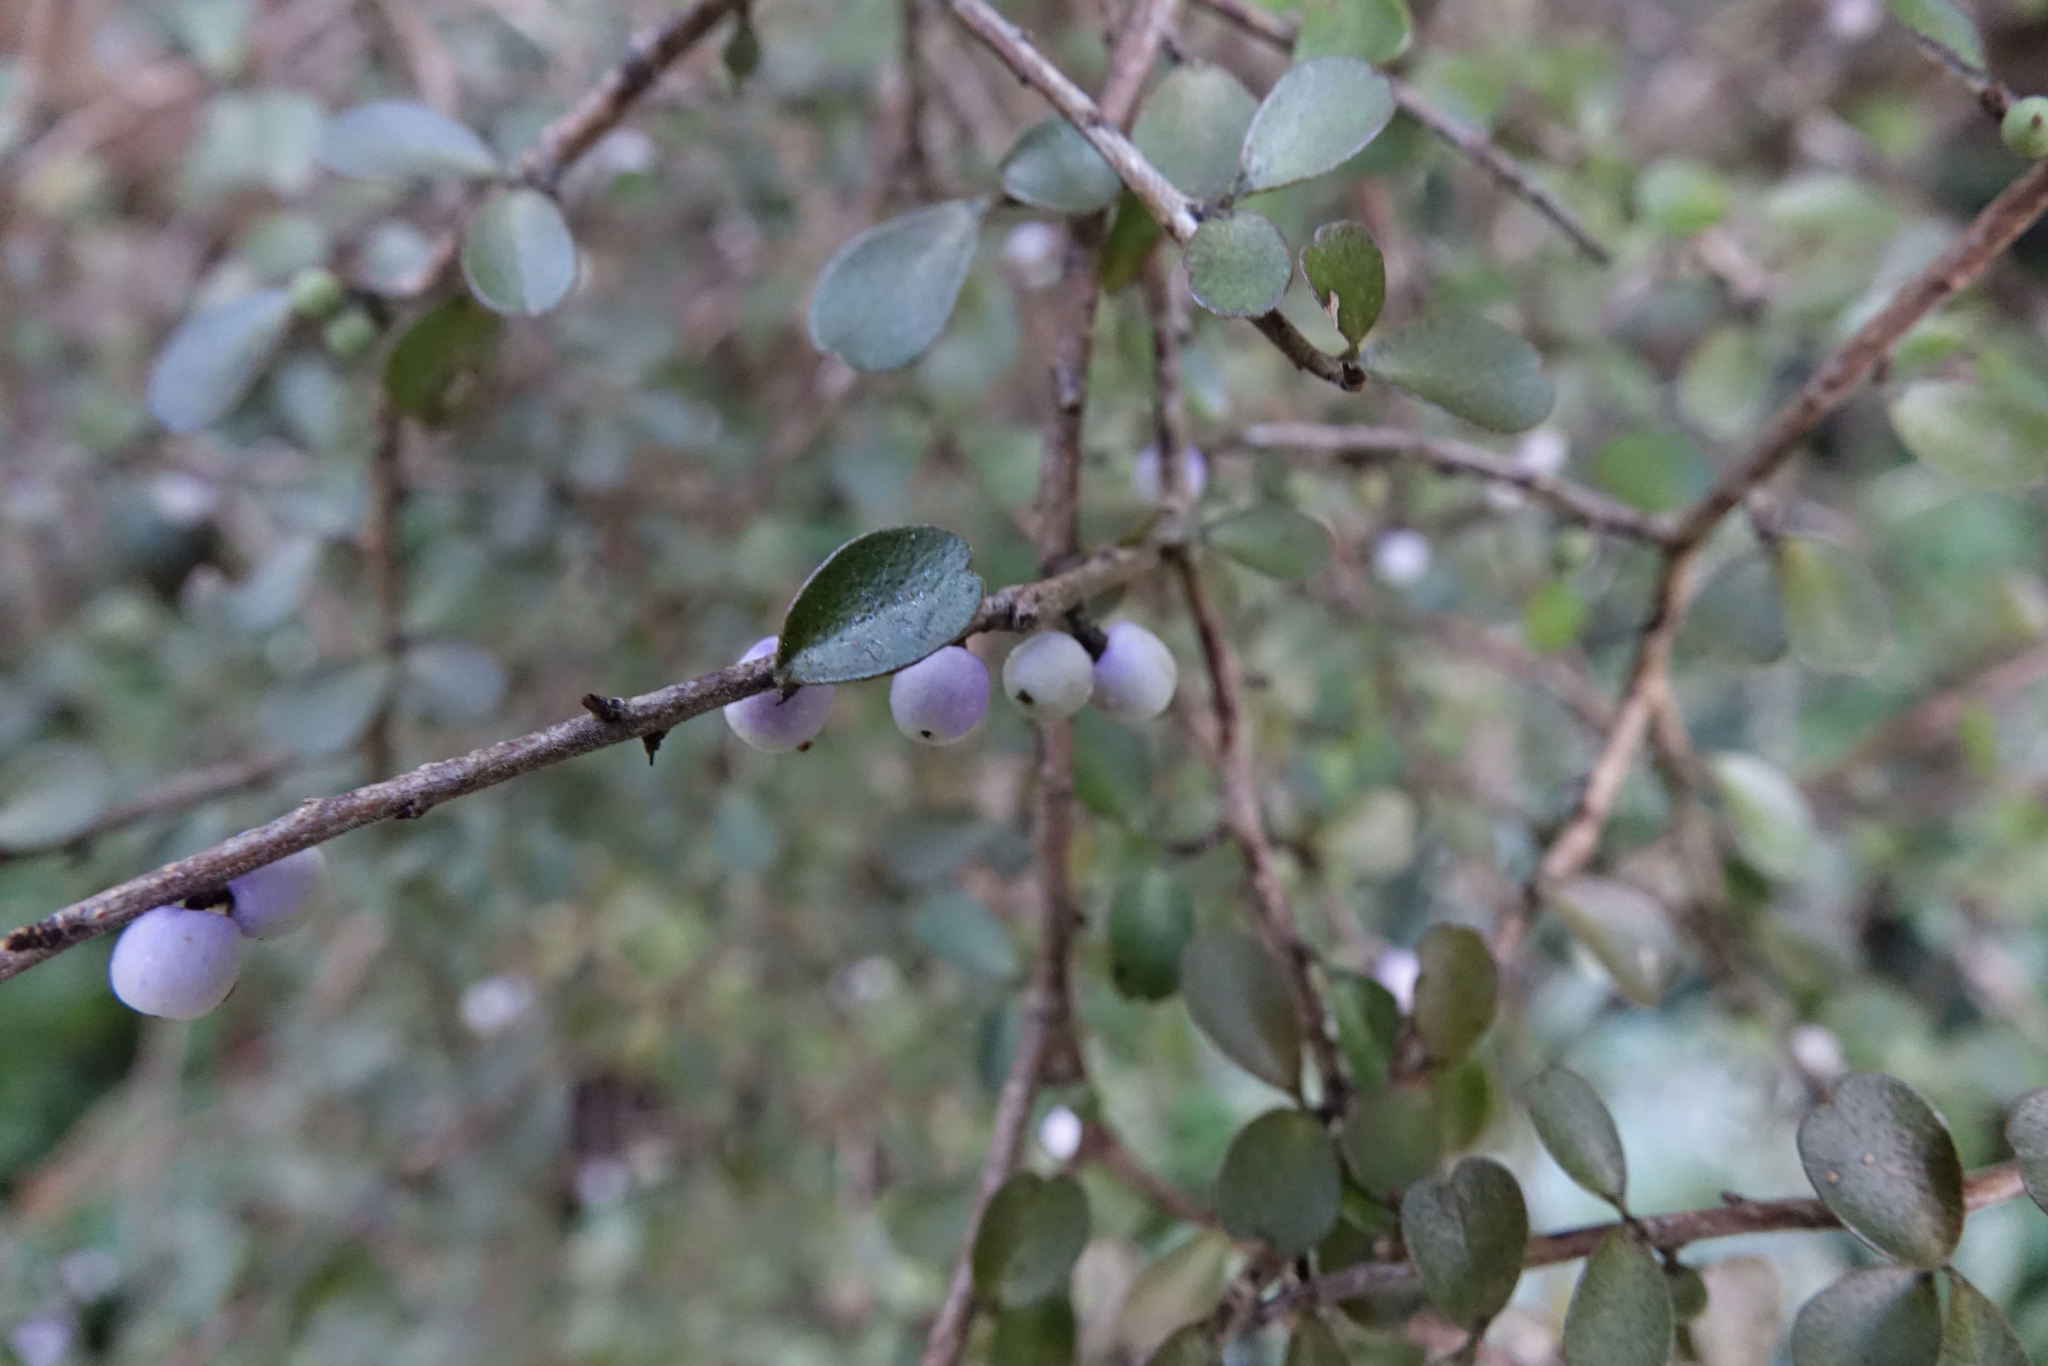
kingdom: Plantae
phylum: Tracheophyta
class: Magnoliopsida
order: Ericales
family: Primulaceae
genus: Myrsine
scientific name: Myrsine divaricata
